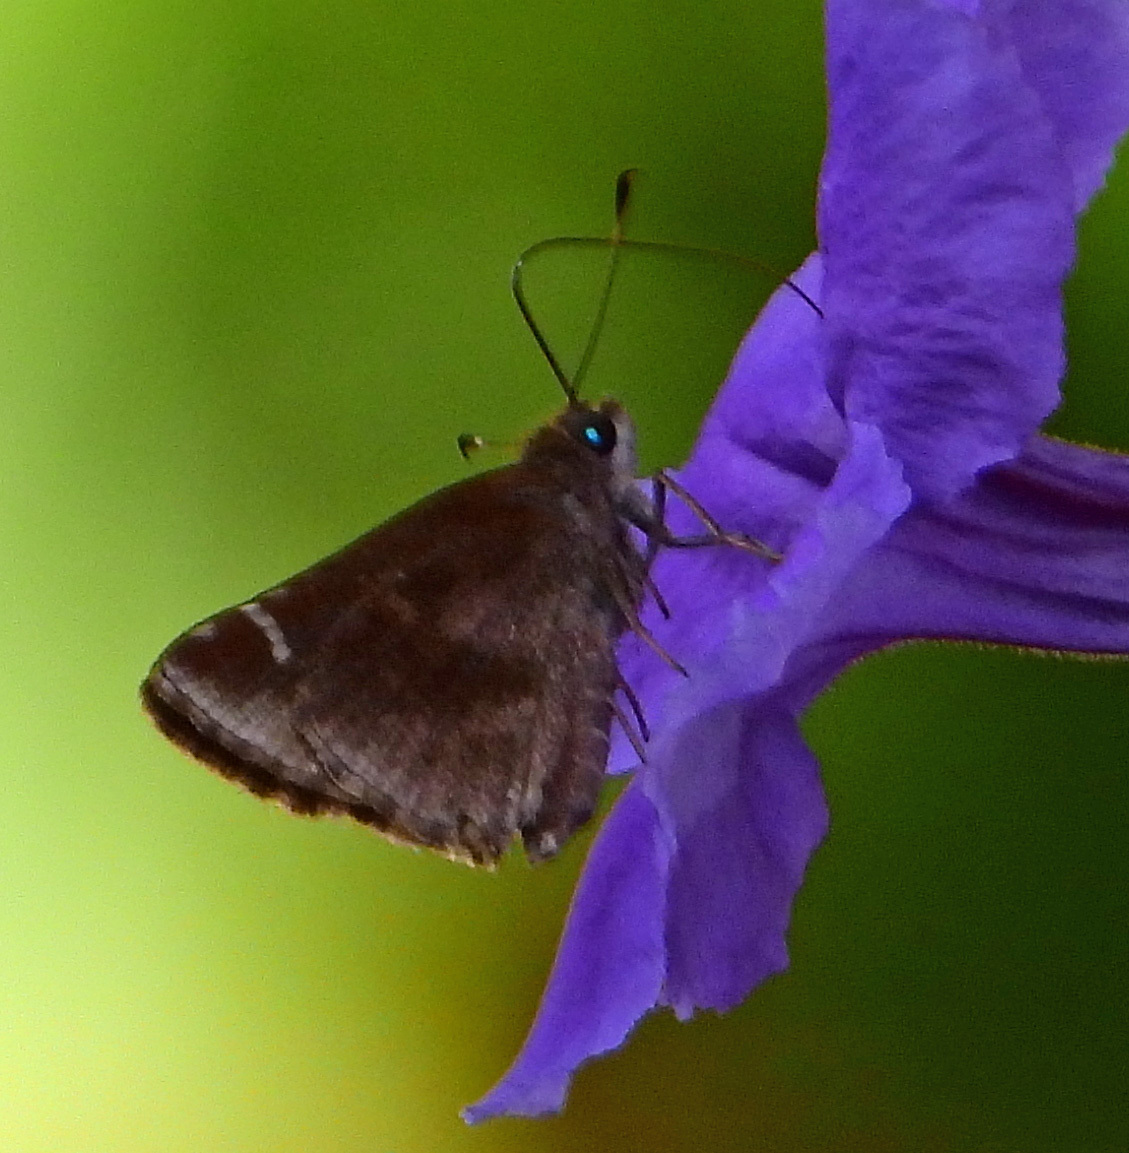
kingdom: Animalia
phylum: Arthropoda
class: Insecta
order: Lepidoptera
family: Hesperiidae
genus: Lerema
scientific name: Lerema accius
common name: Clouded skipper
